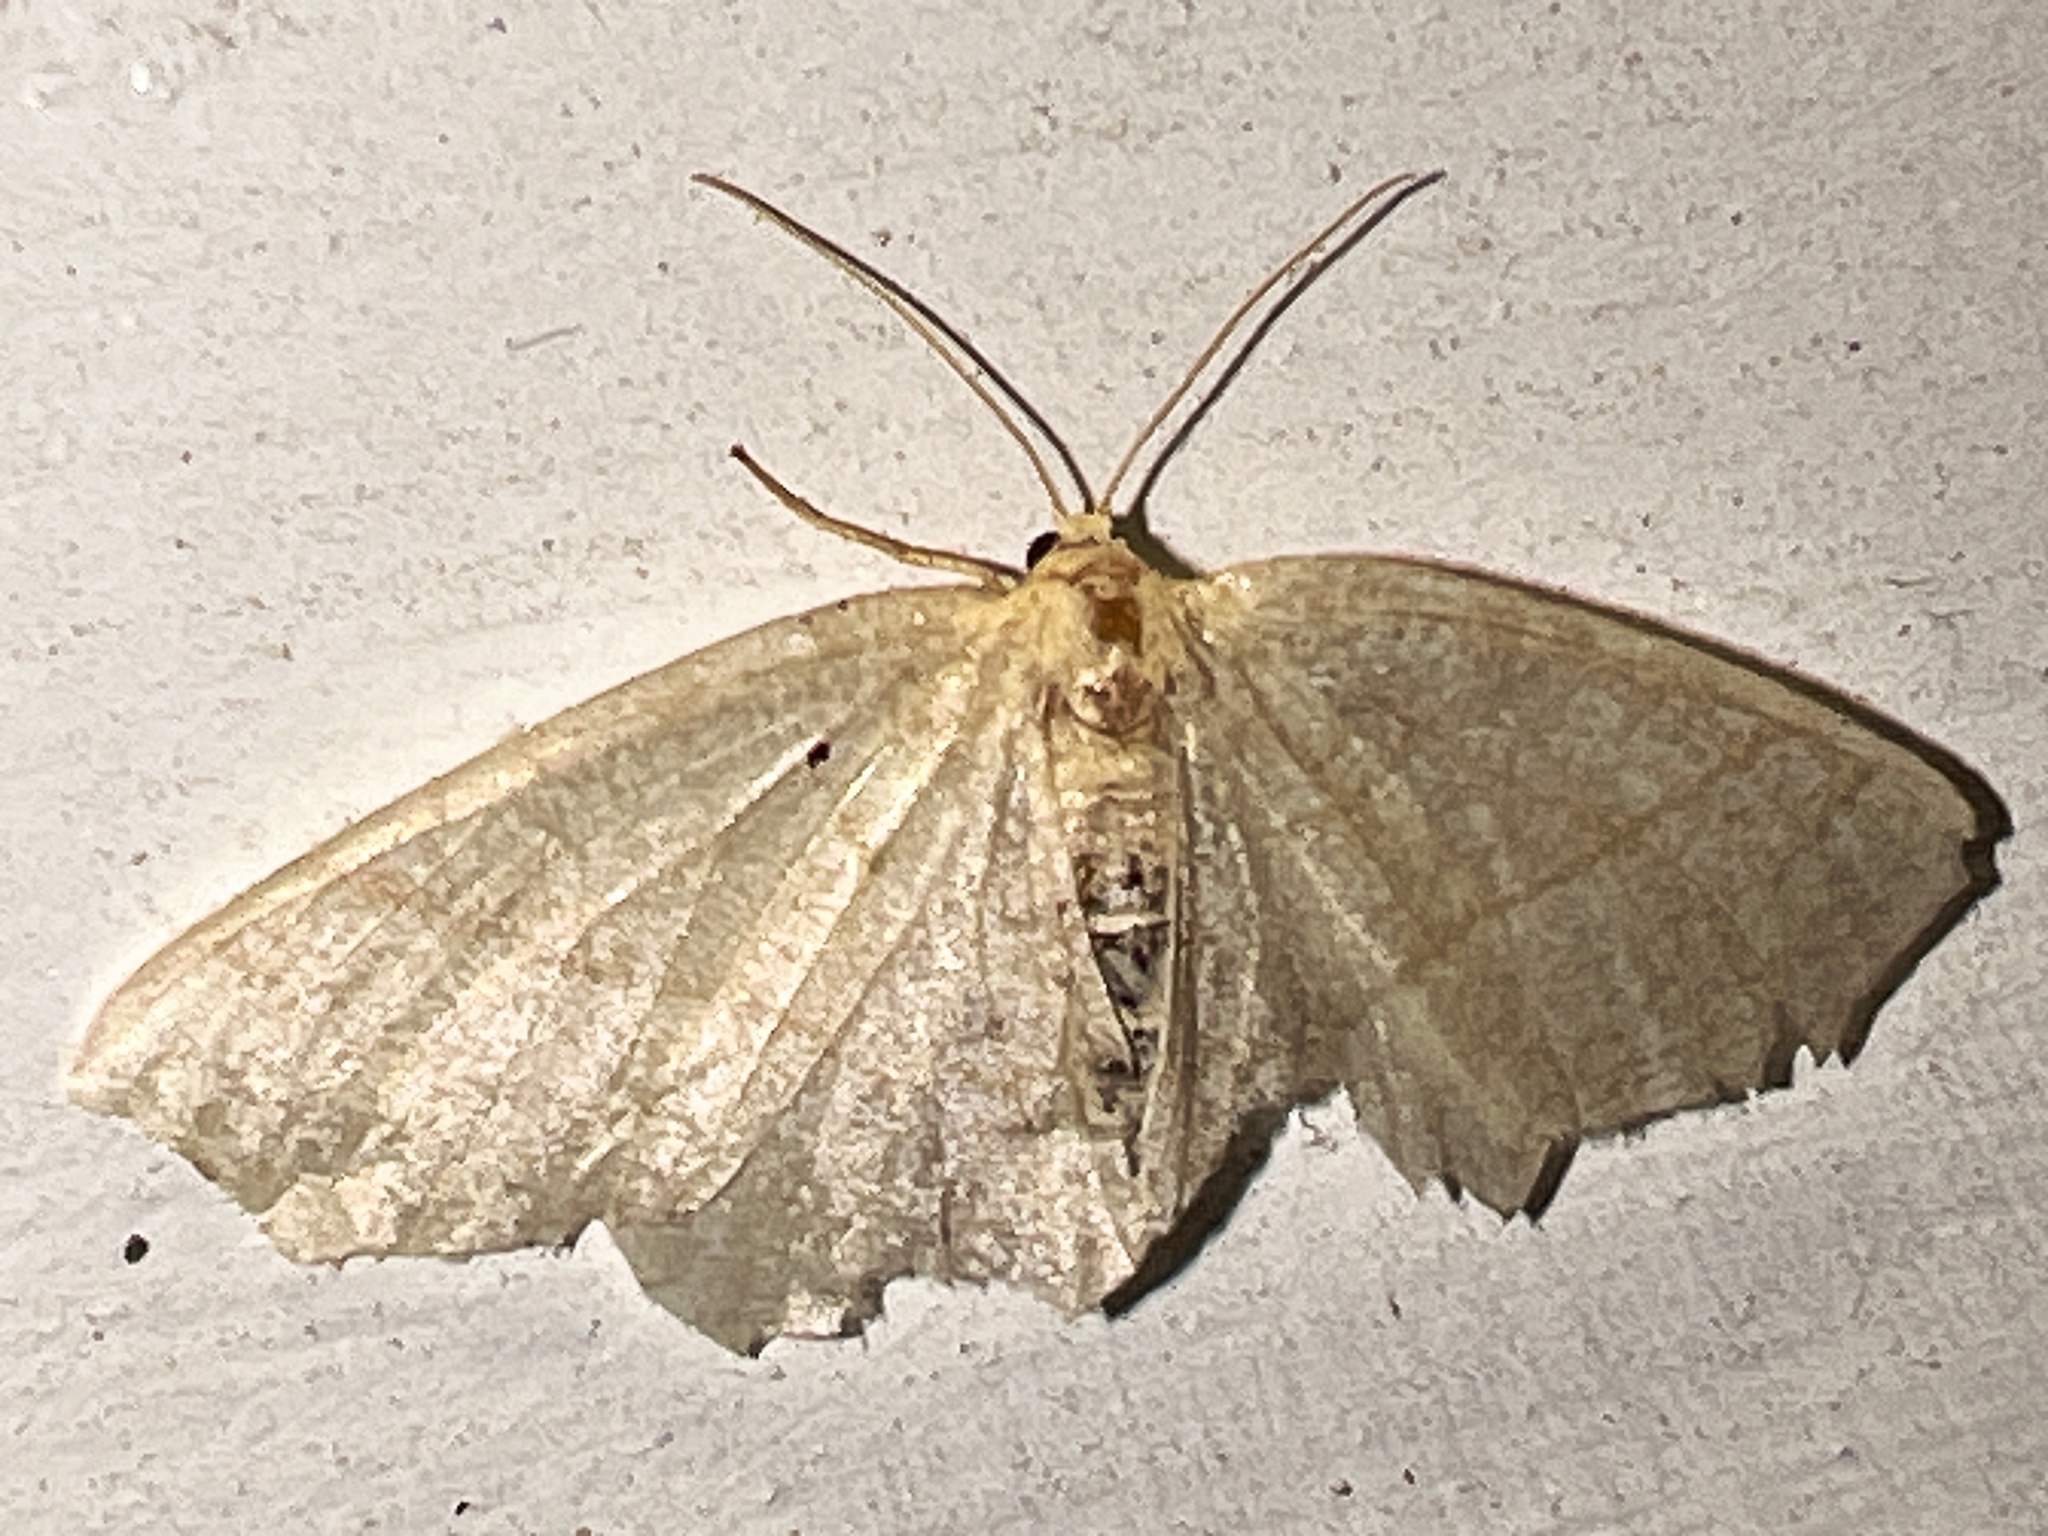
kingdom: Animalia
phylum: Arthropoda
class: Insecta
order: Lepidoptera
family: Geometridae
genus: Besma
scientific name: Besma endropiaria
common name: Straw besma
